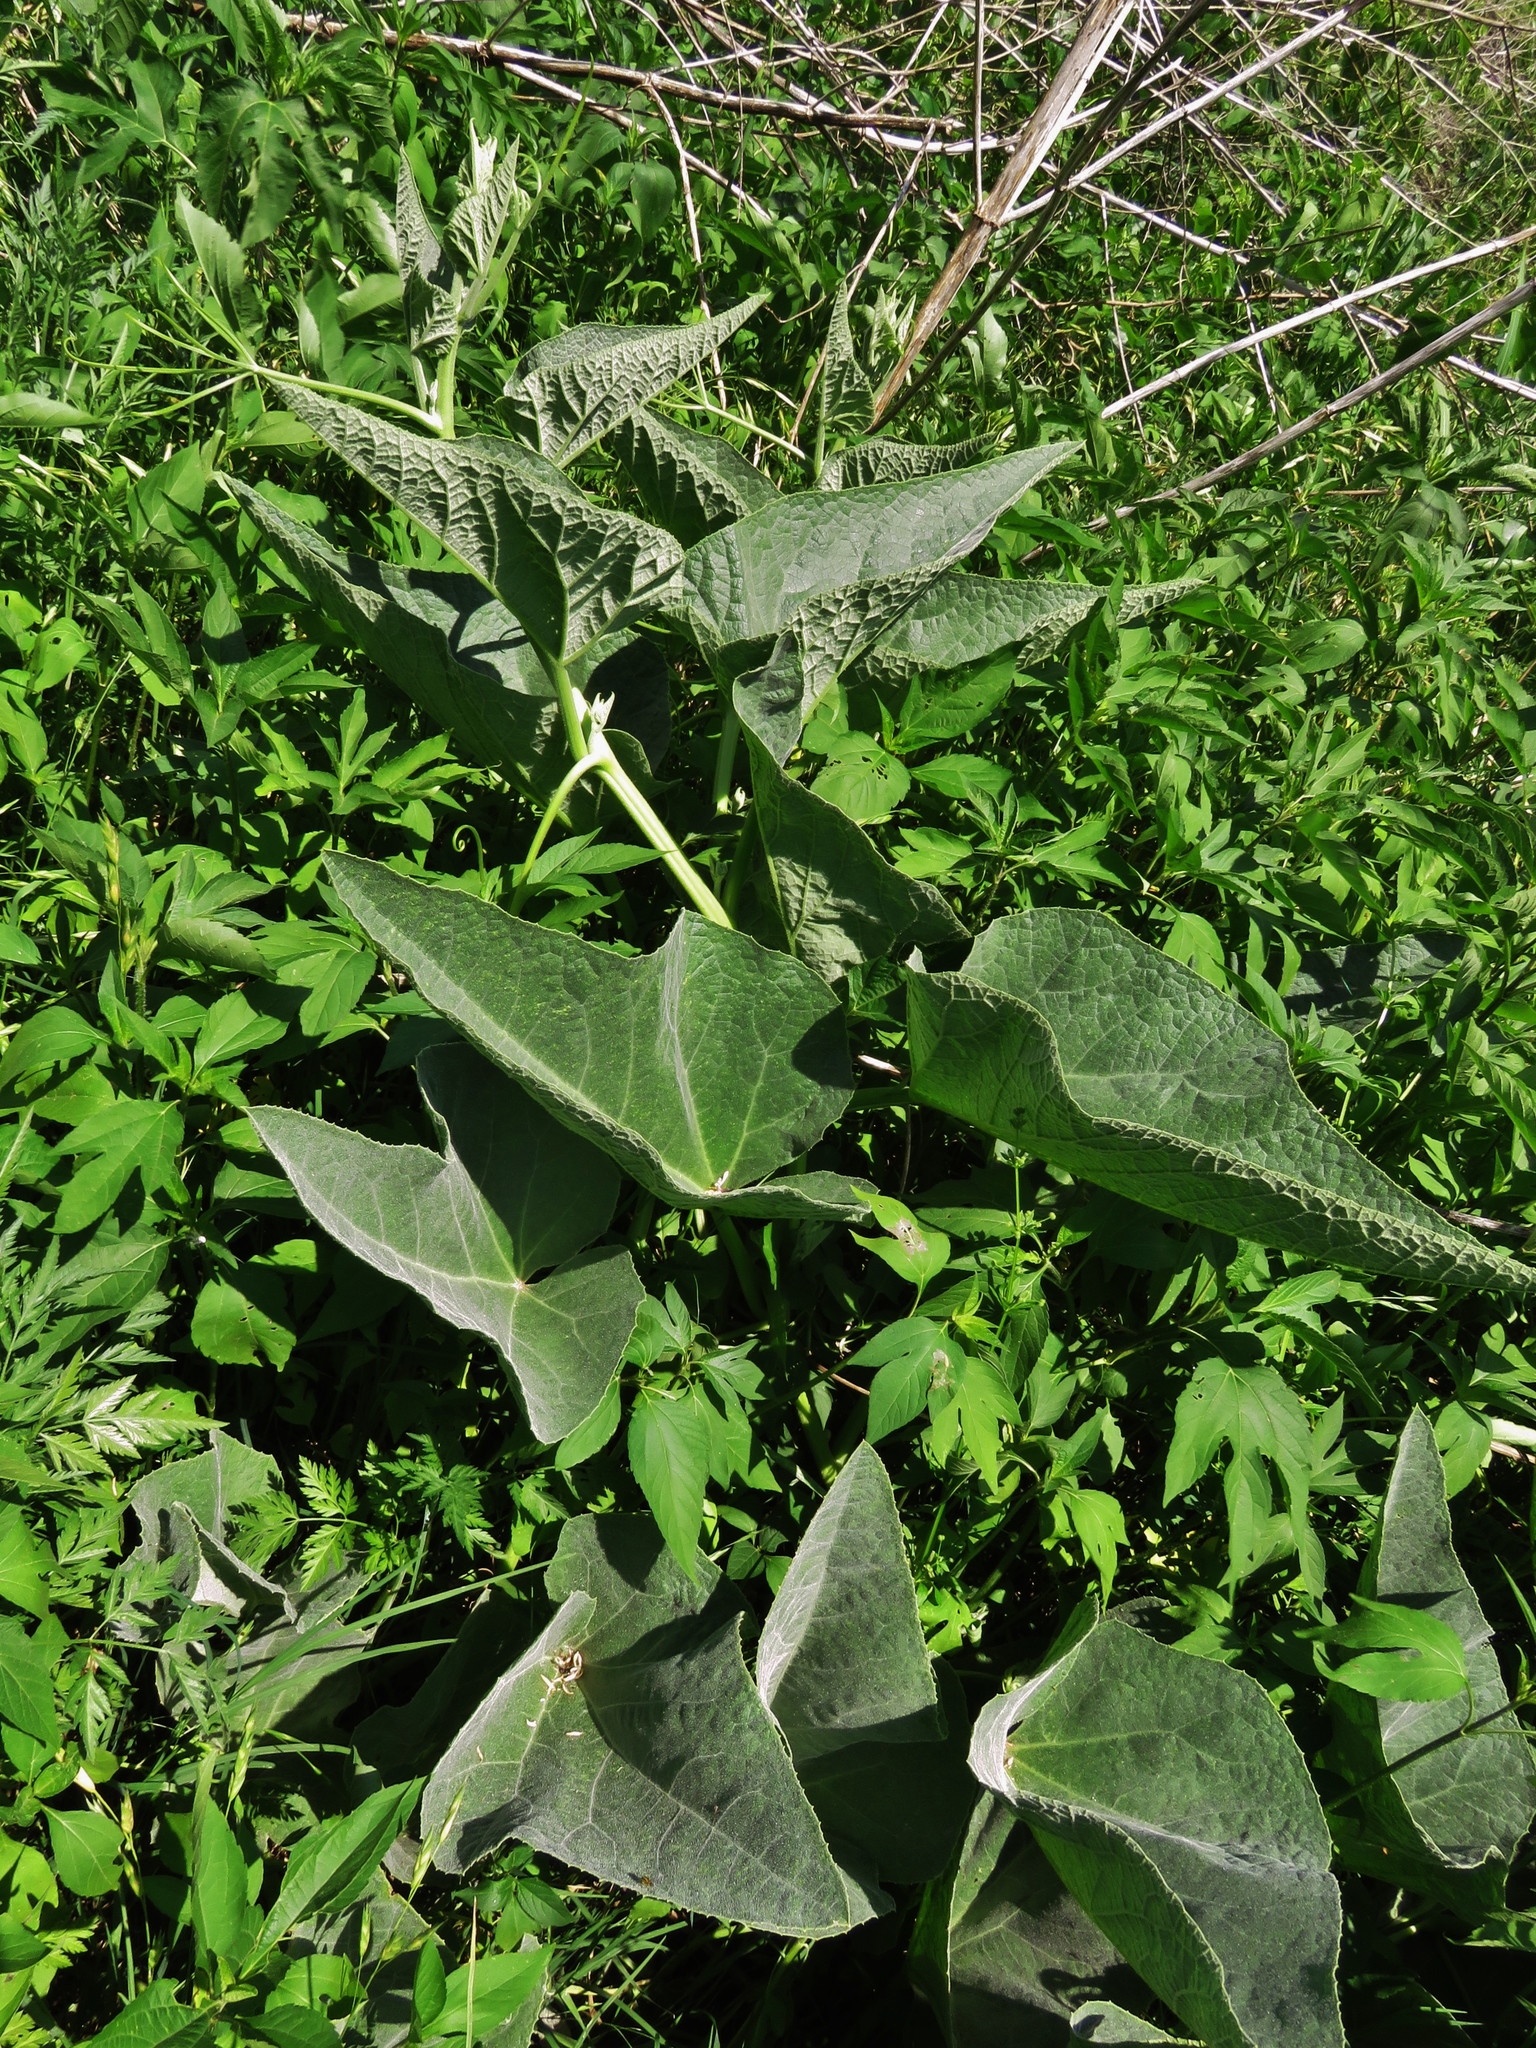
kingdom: Plantae
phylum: Tracheophyta
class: Magnoliopsida
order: Cucurbitales
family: Cucurbitaceae
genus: Cucurbita
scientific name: Cucurbita foetidissima
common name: Buffalo gourd
